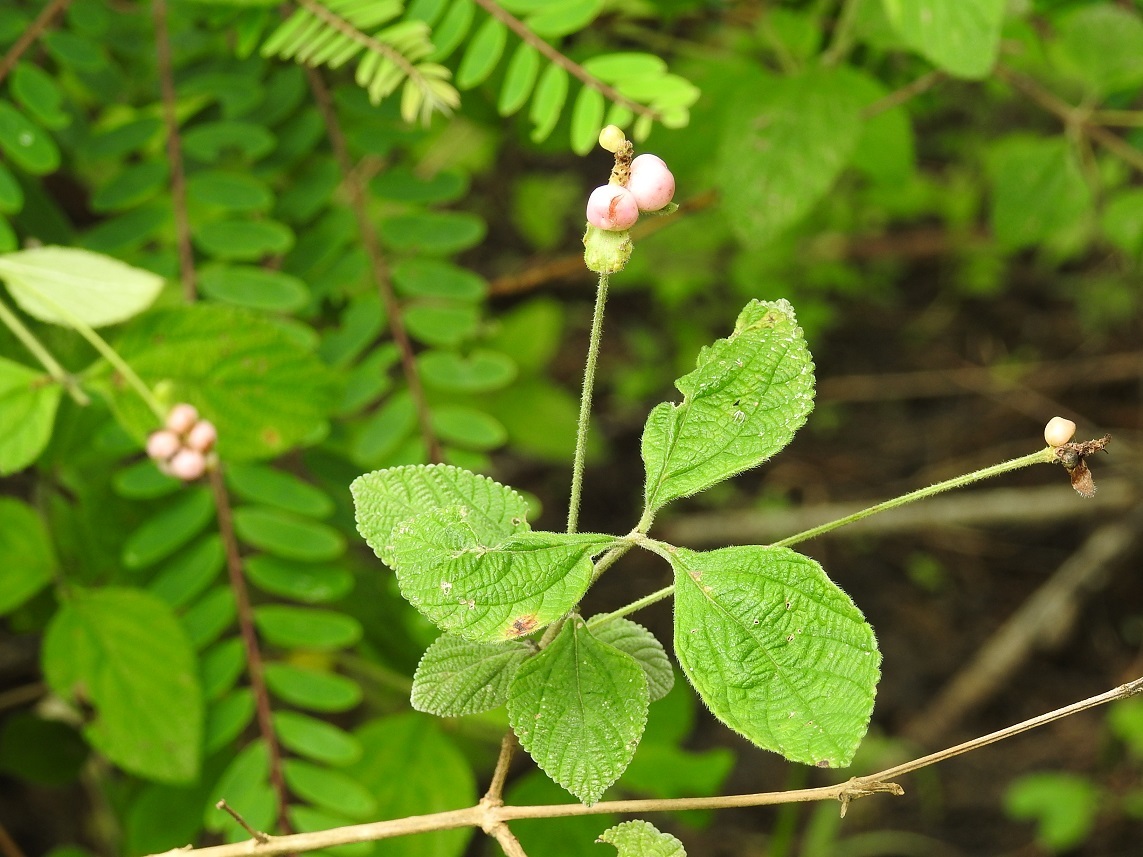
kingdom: Plantae
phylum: Tracheophyta
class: Magnoliopsida
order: Lamiales
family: Verbenaceae
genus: Lantana
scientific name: Lantana hirta
